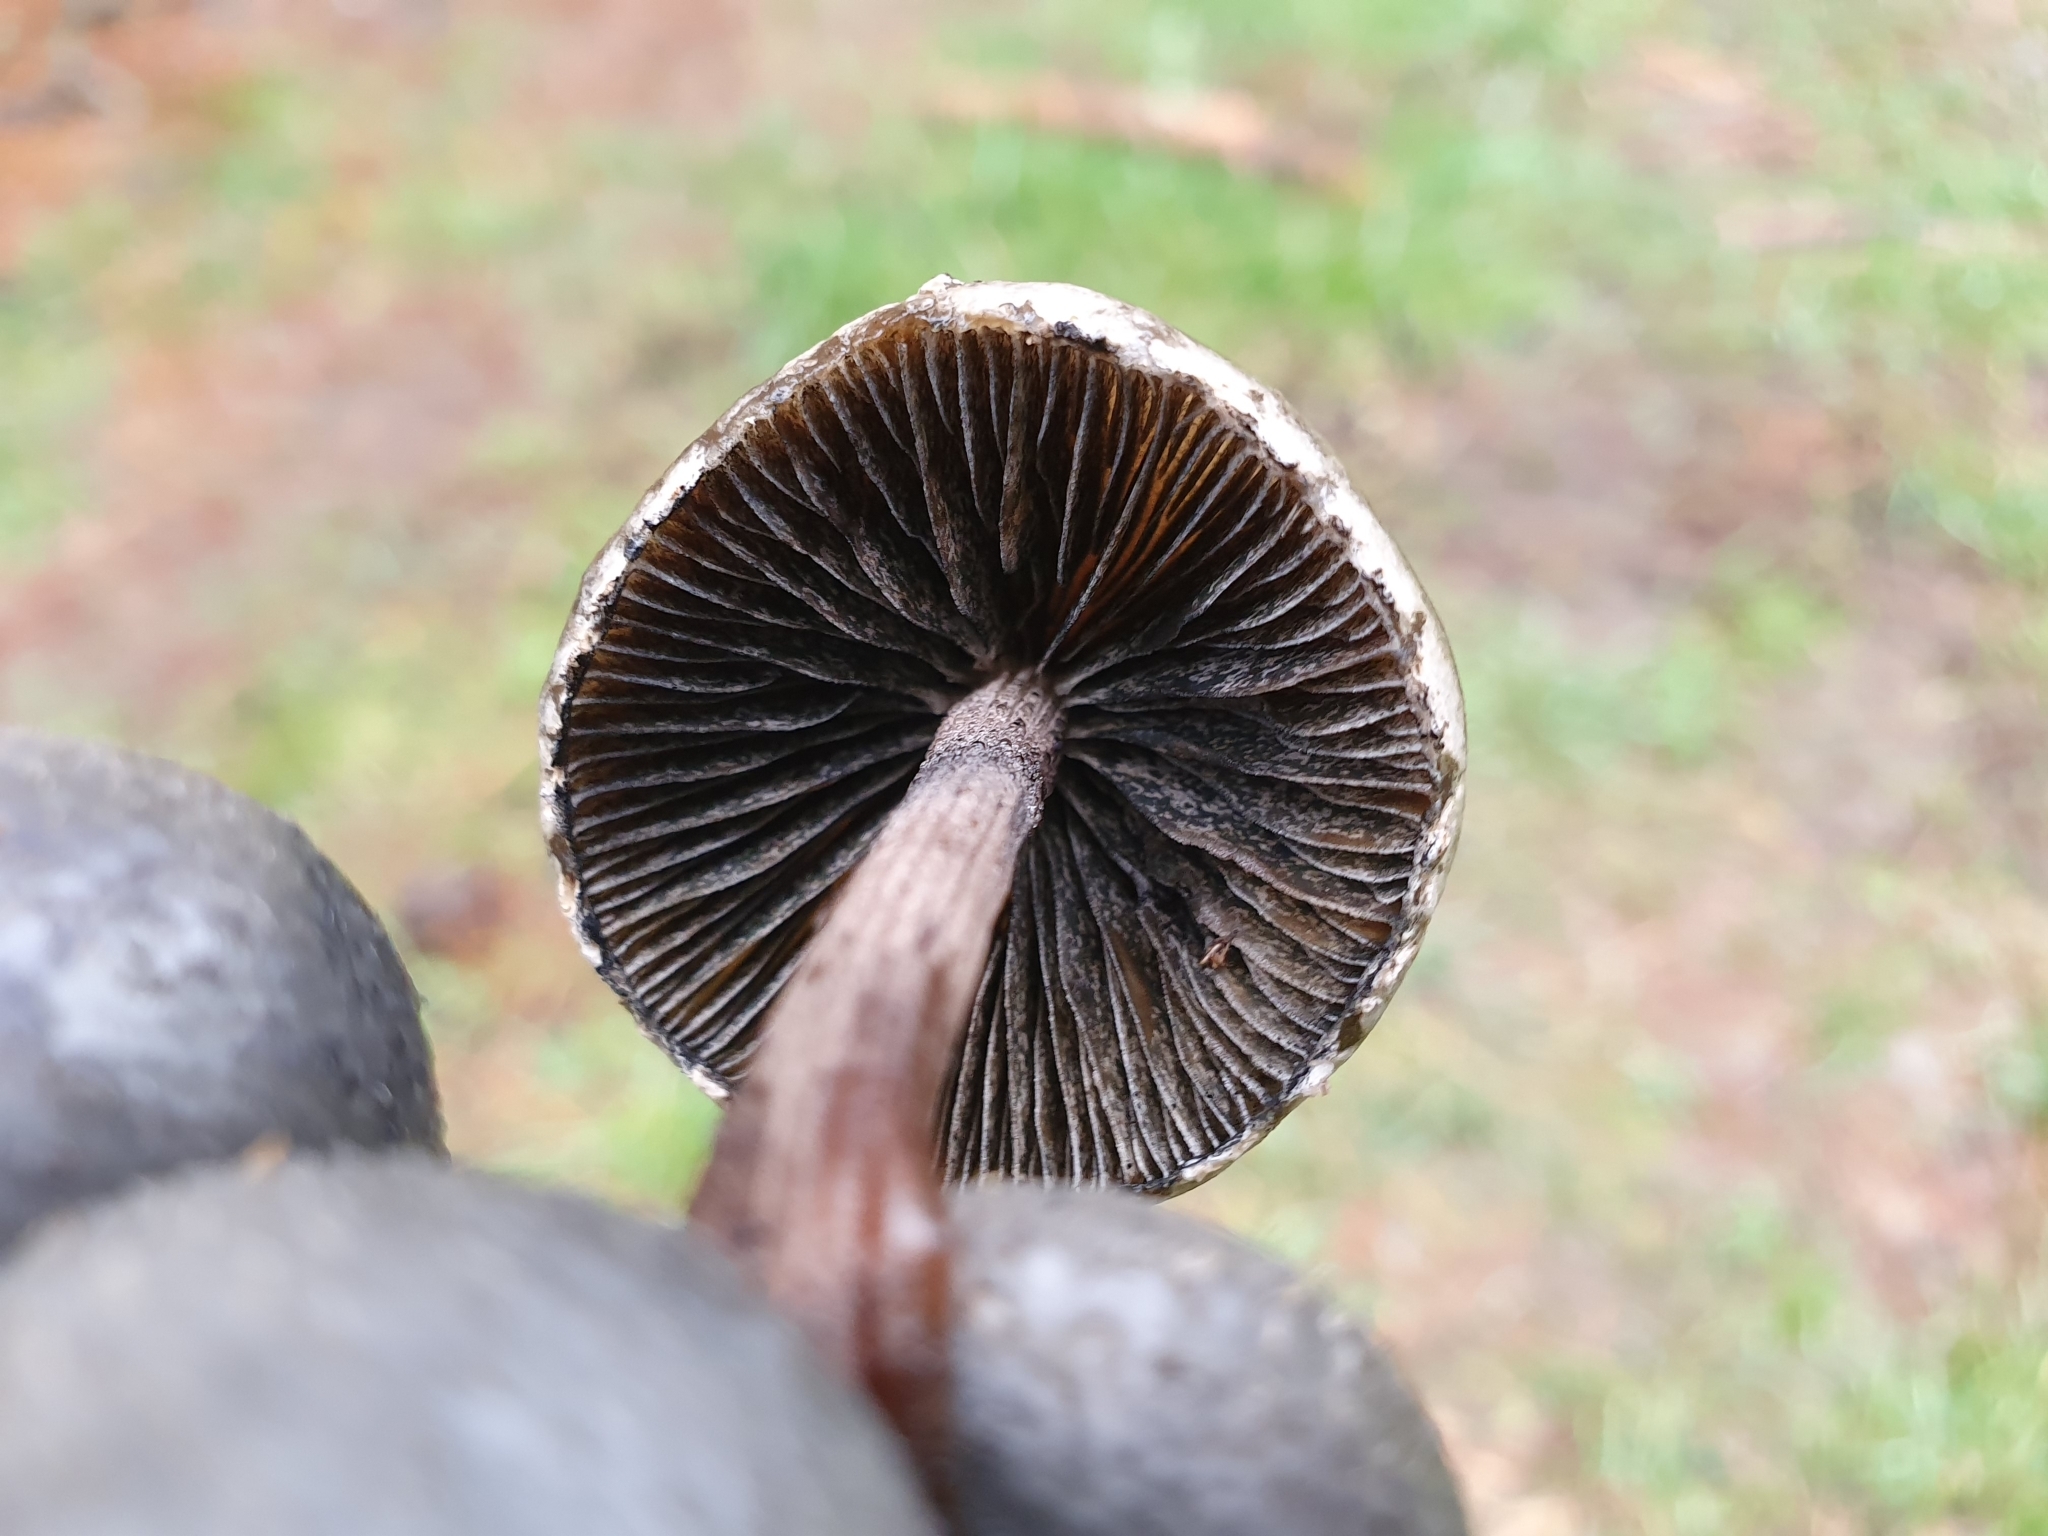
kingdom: Fungi
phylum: Basidiomycota
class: Agaricomycetes
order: Agaricales
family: Bolbitiaceae
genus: Panaeolus
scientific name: Panaeolus papilionaceus
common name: Petticoat mottlegill
